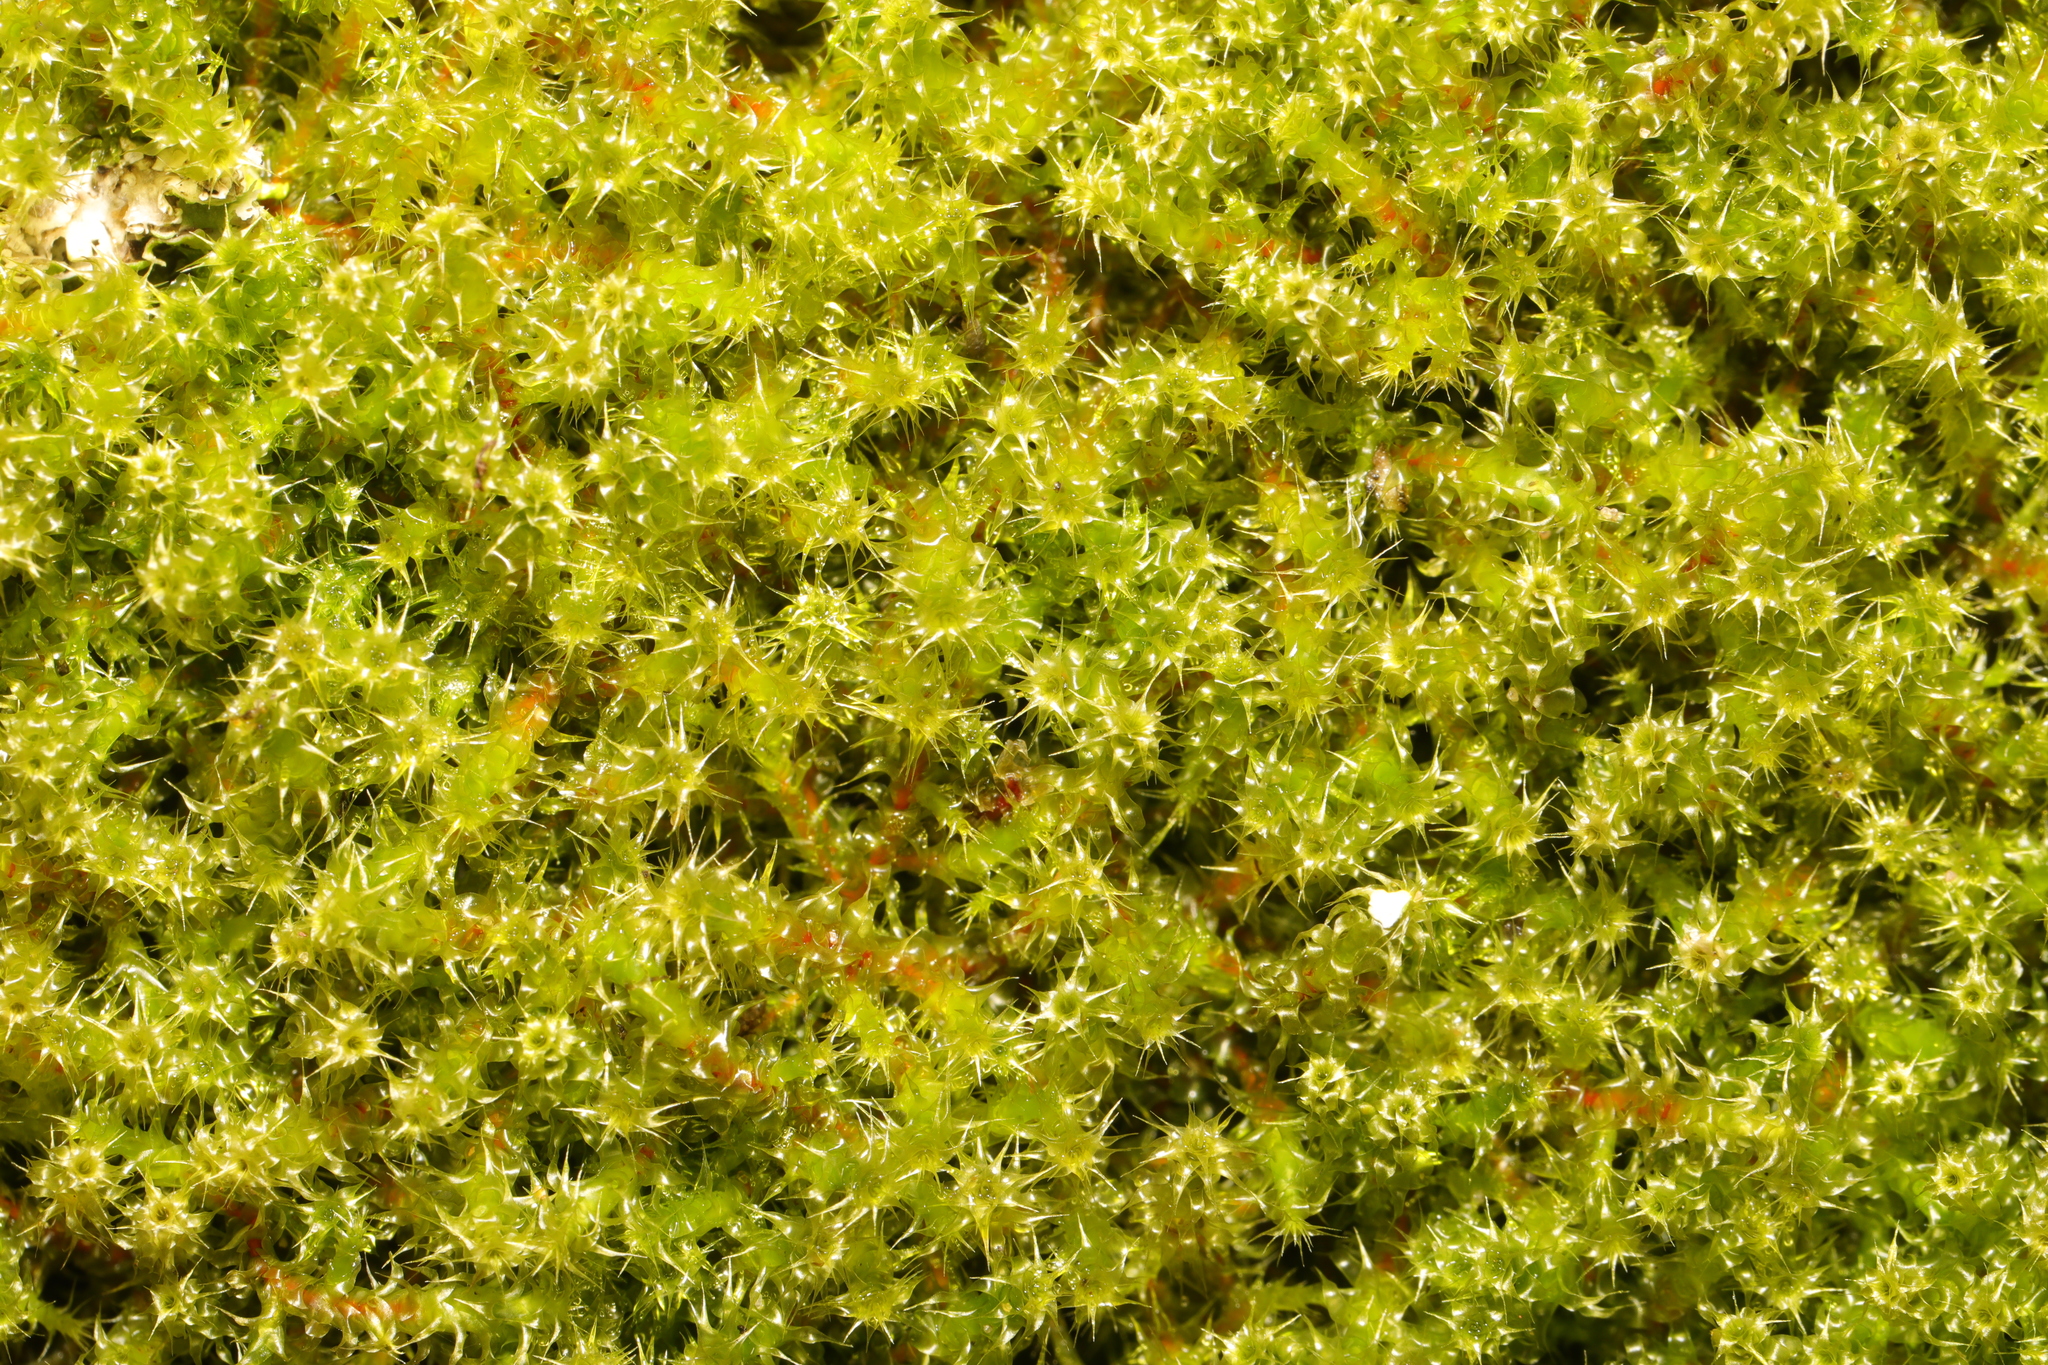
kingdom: Plantae
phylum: Bryophyta
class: Bryopsida
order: Hypnales
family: Hylocomiaceae
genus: Rhytidiadelphus
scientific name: Rhytidiadelphus squarrosus
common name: Springy turf-moss
